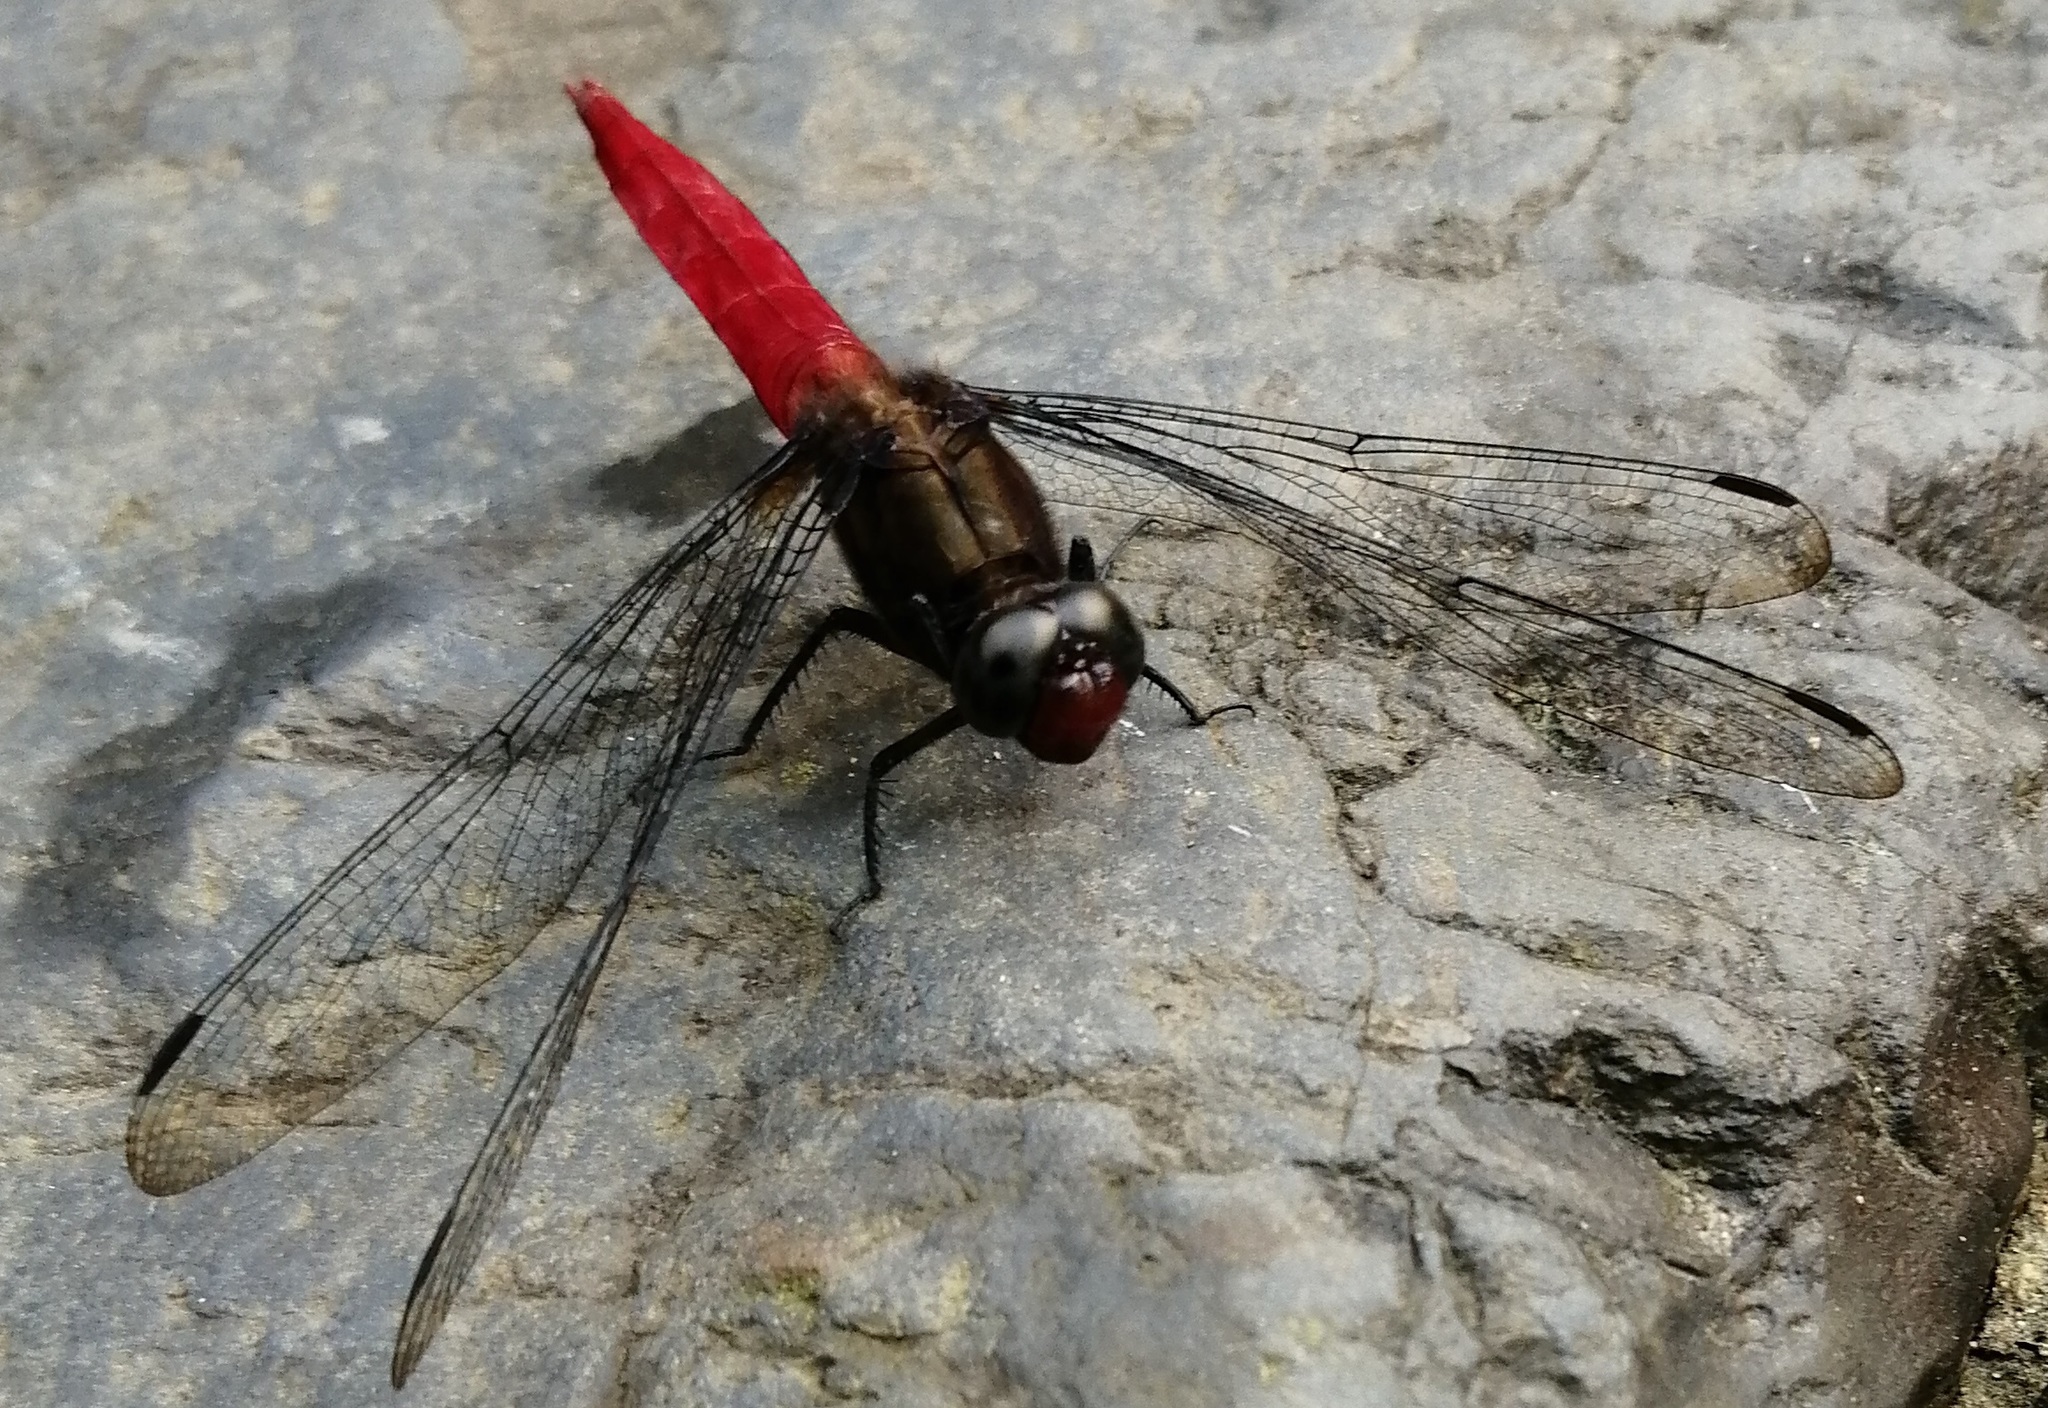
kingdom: Animalia
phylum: Arthropoda
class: Insecta
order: Odonata
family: Libellulidae
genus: Orthetrum
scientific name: Orthetrum chrysis
